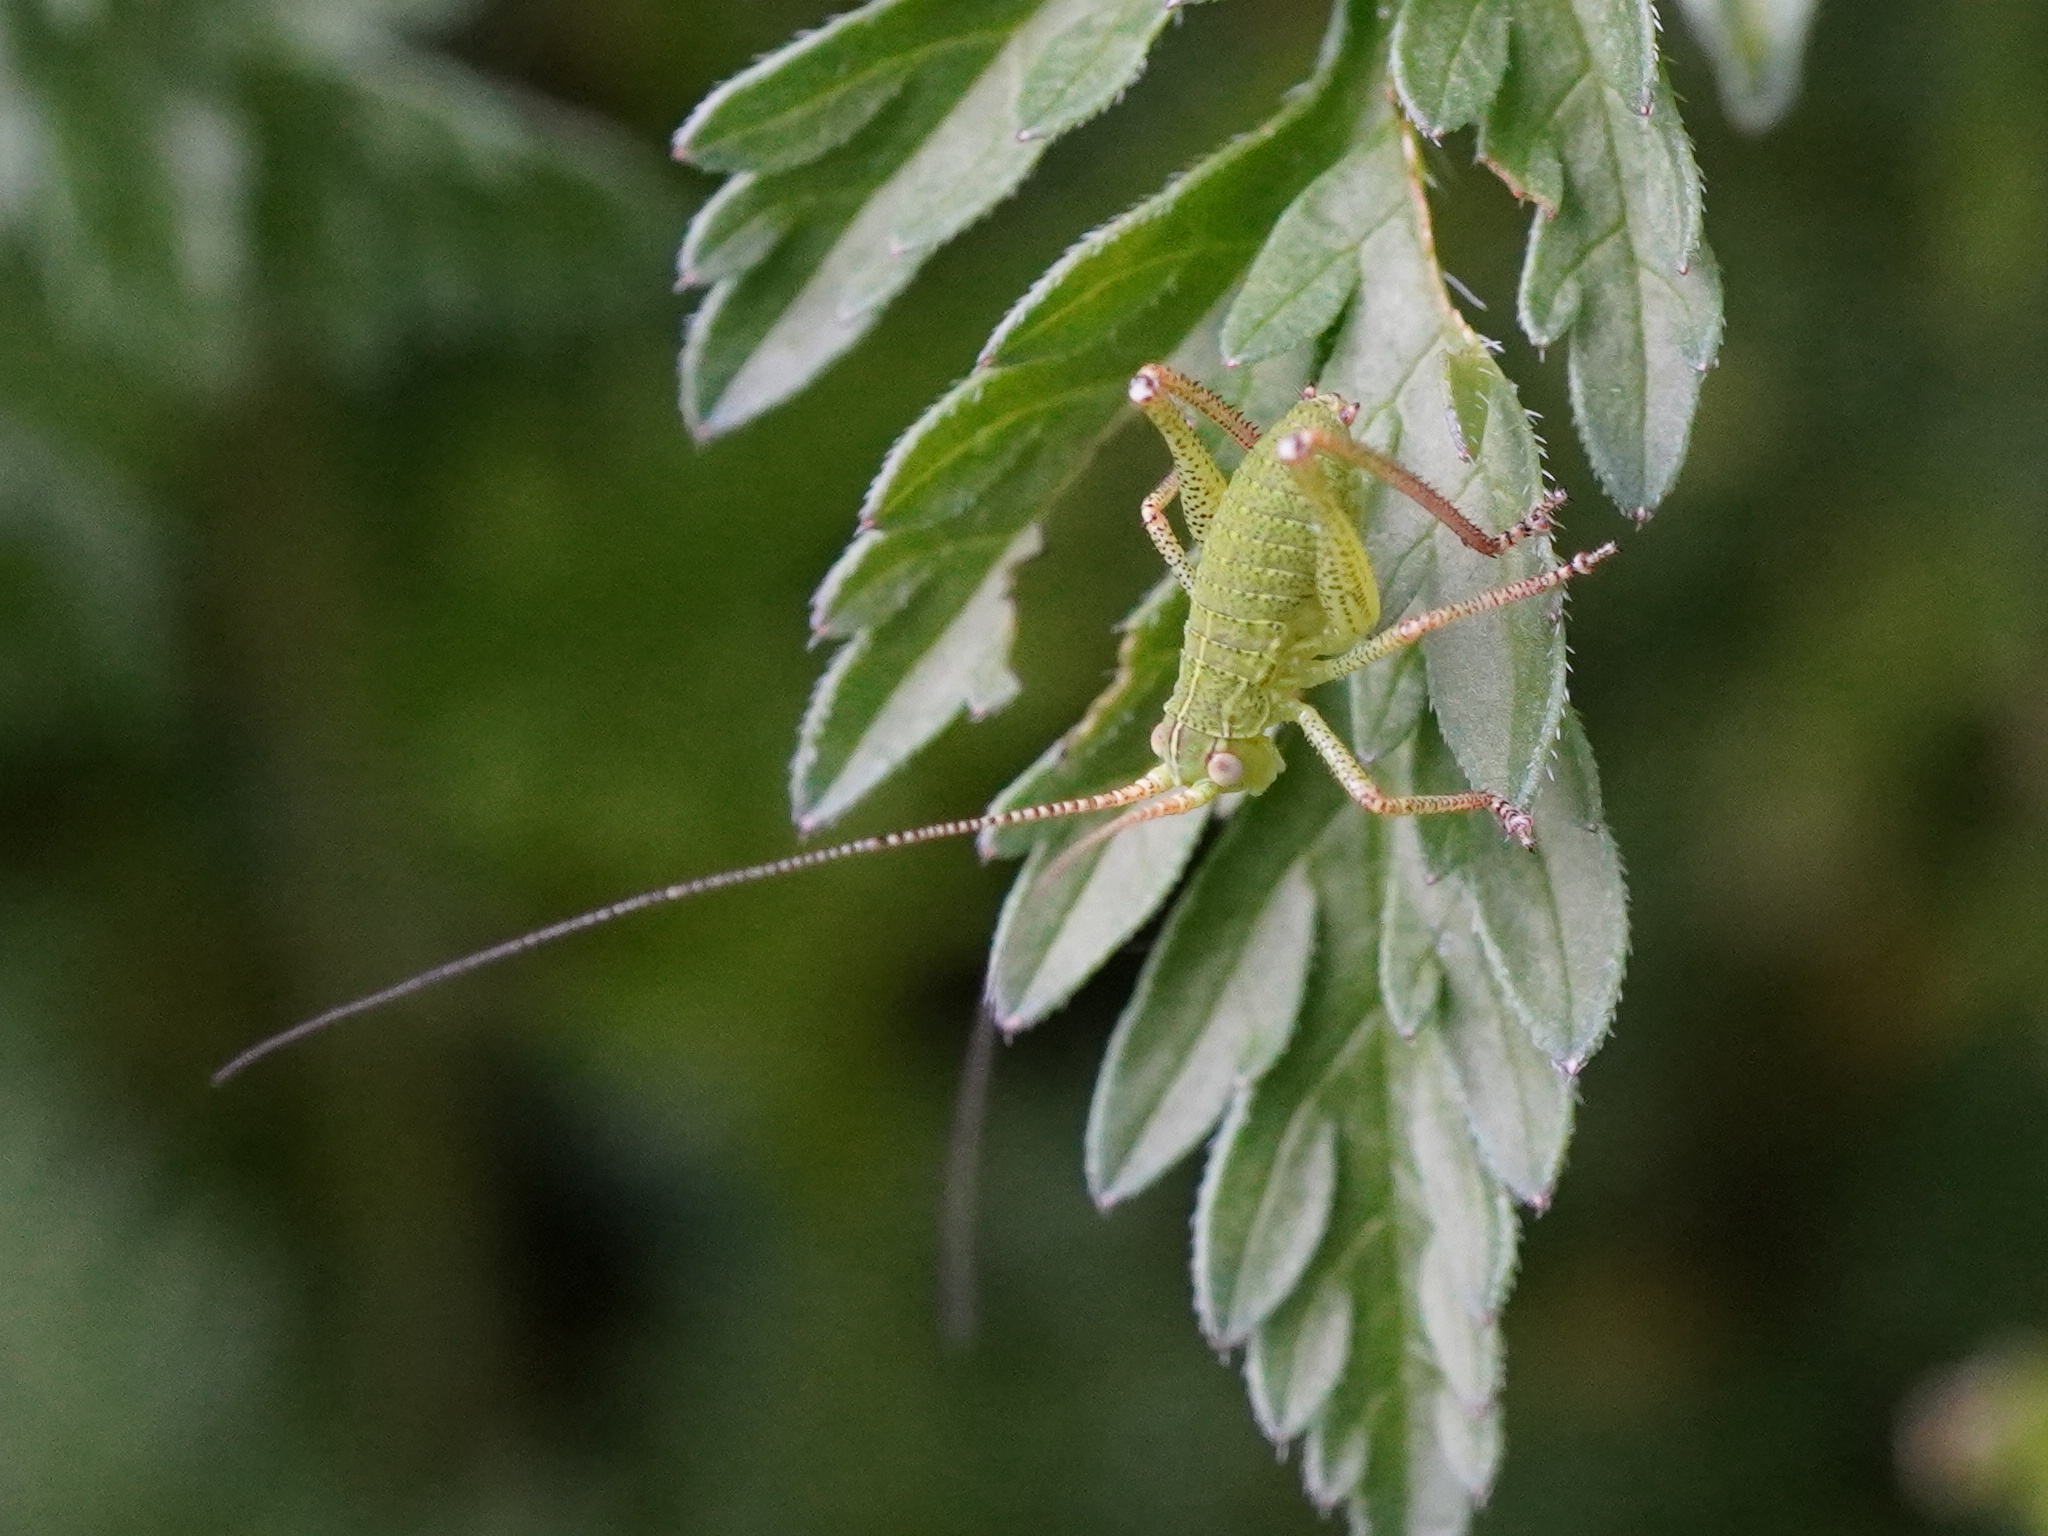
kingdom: Animalia
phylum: Arthropoda
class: Insecta
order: Orthoptera
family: Tettigoniidae
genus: Barbitistes
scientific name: Barbitistes serricauda
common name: Saw-tailed bush-cricket
